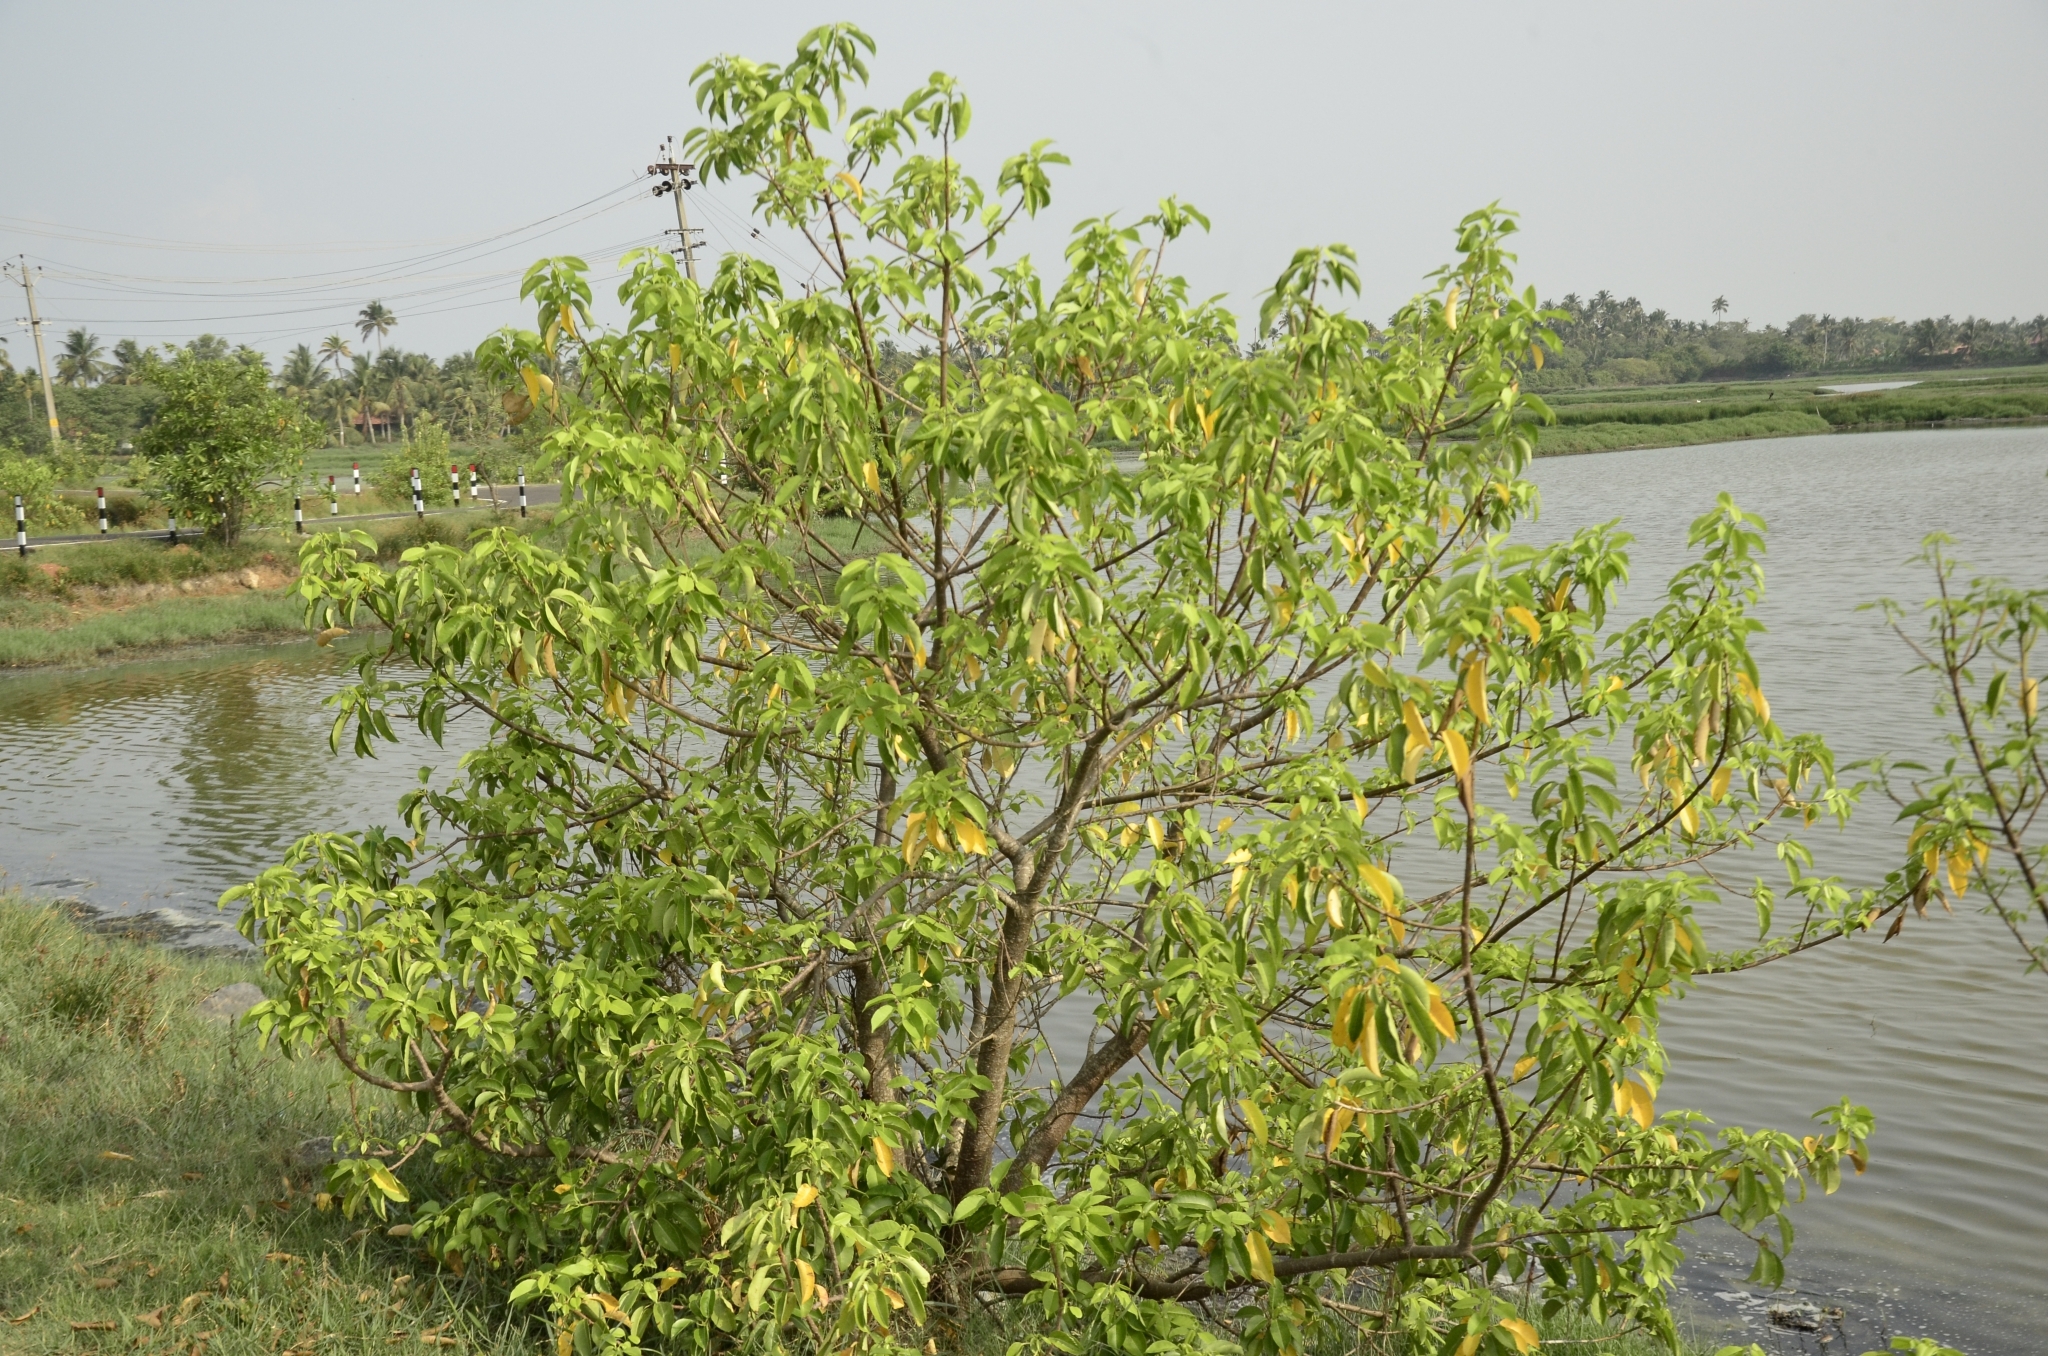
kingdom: Plantae
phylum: Tracheophyta
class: Magnoliopsida
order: Malpighiales
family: Euphorbiaceae
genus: Excoecaria
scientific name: Excoecaria agallocha
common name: River poisontree
